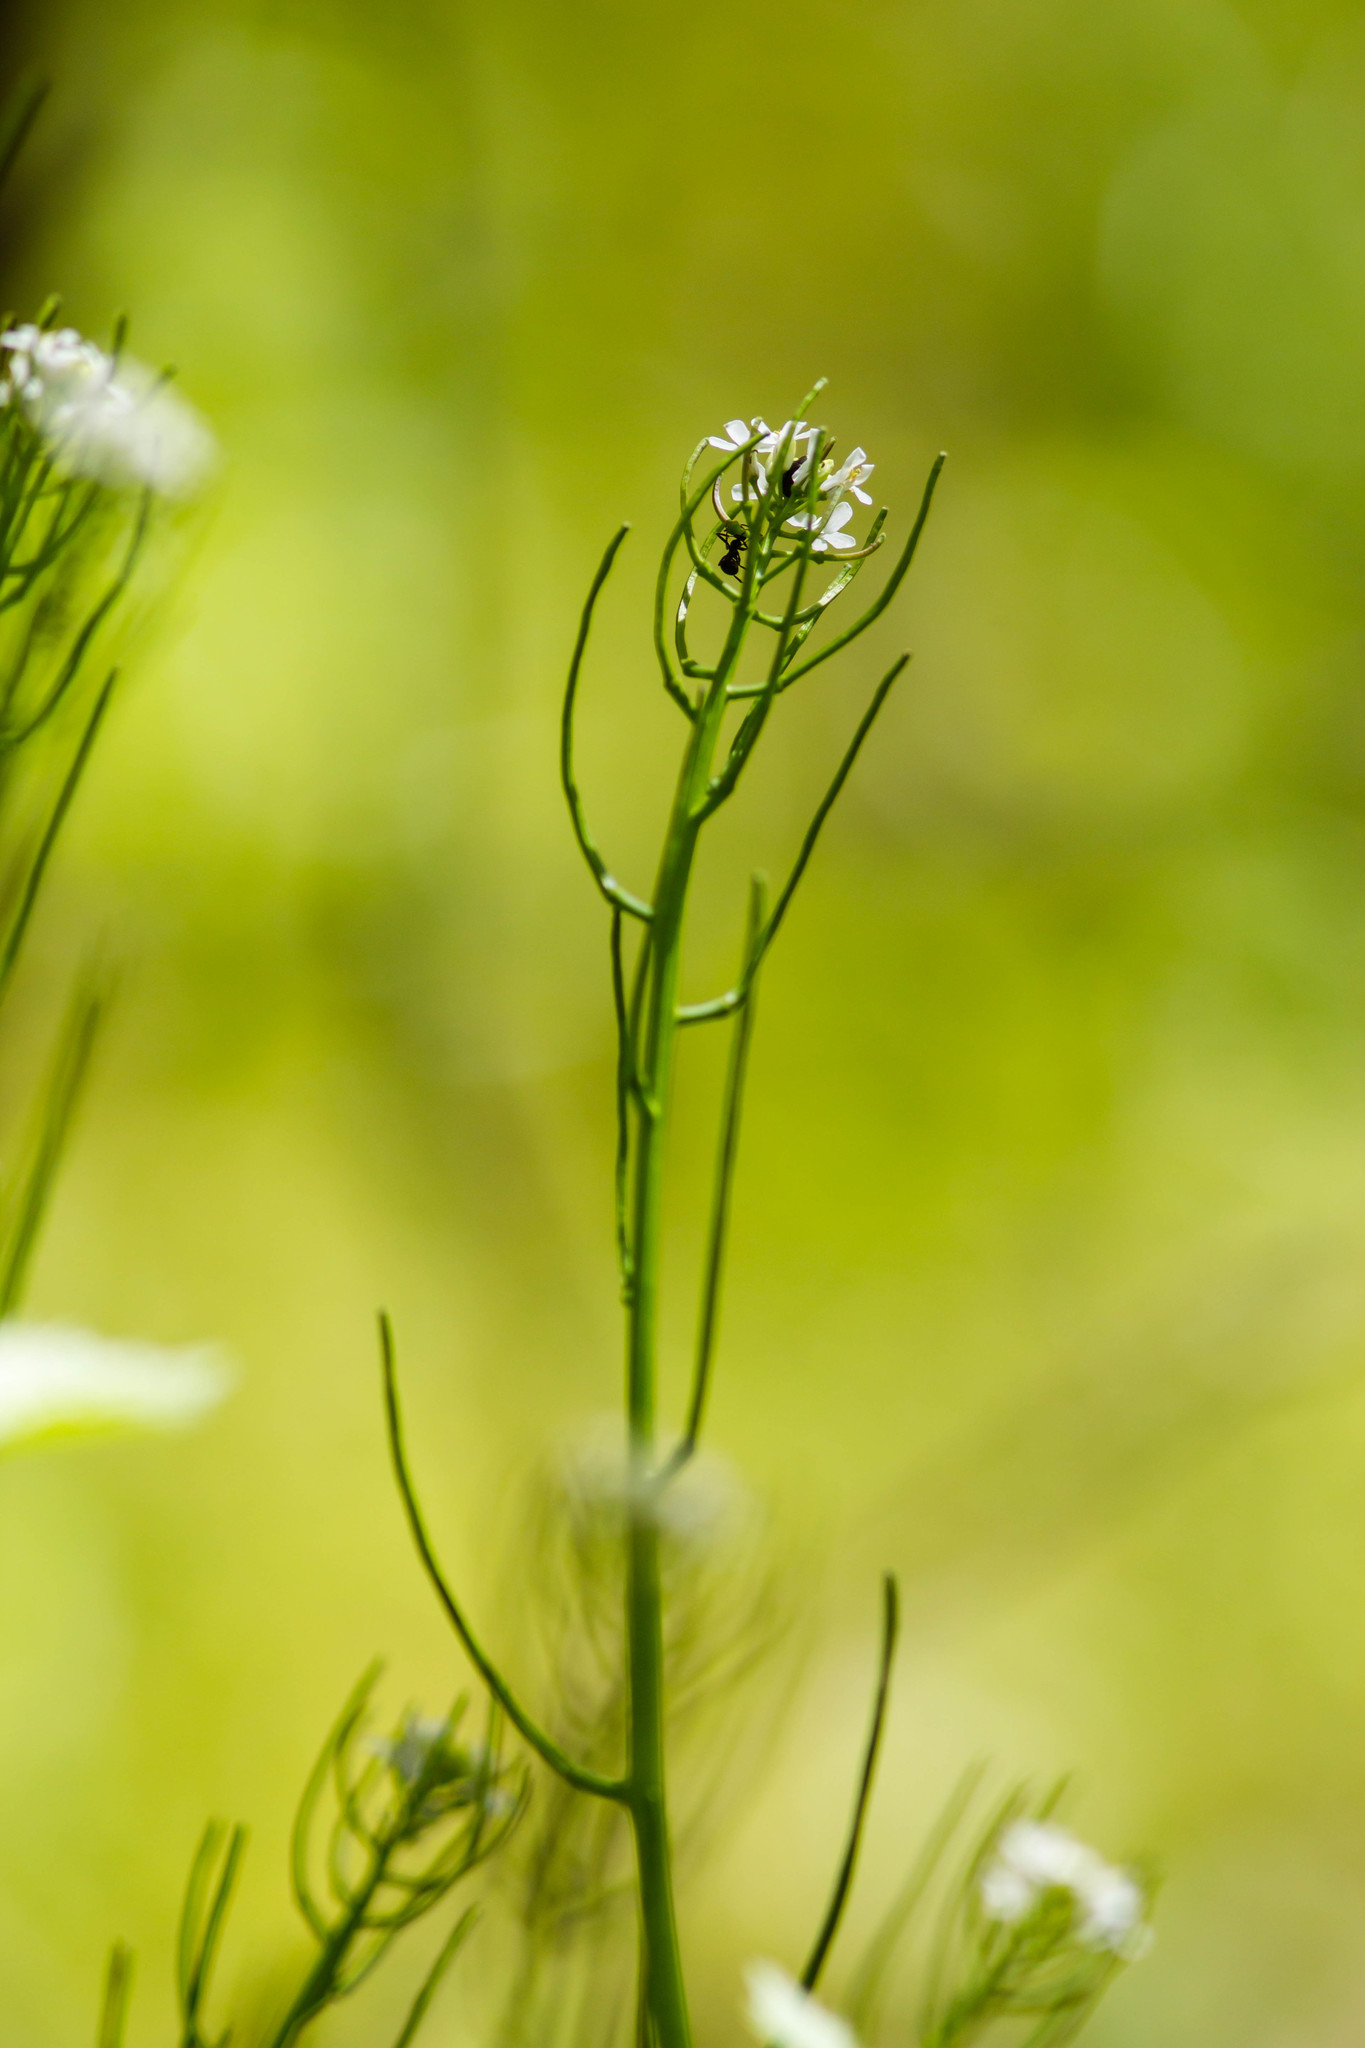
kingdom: Plantae
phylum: Tracheophyta
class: Magnoliopsida
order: Brassicales
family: Brassicaceae
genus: Alliaria
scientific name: Alliaria petiolata
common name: Garlic mustard
